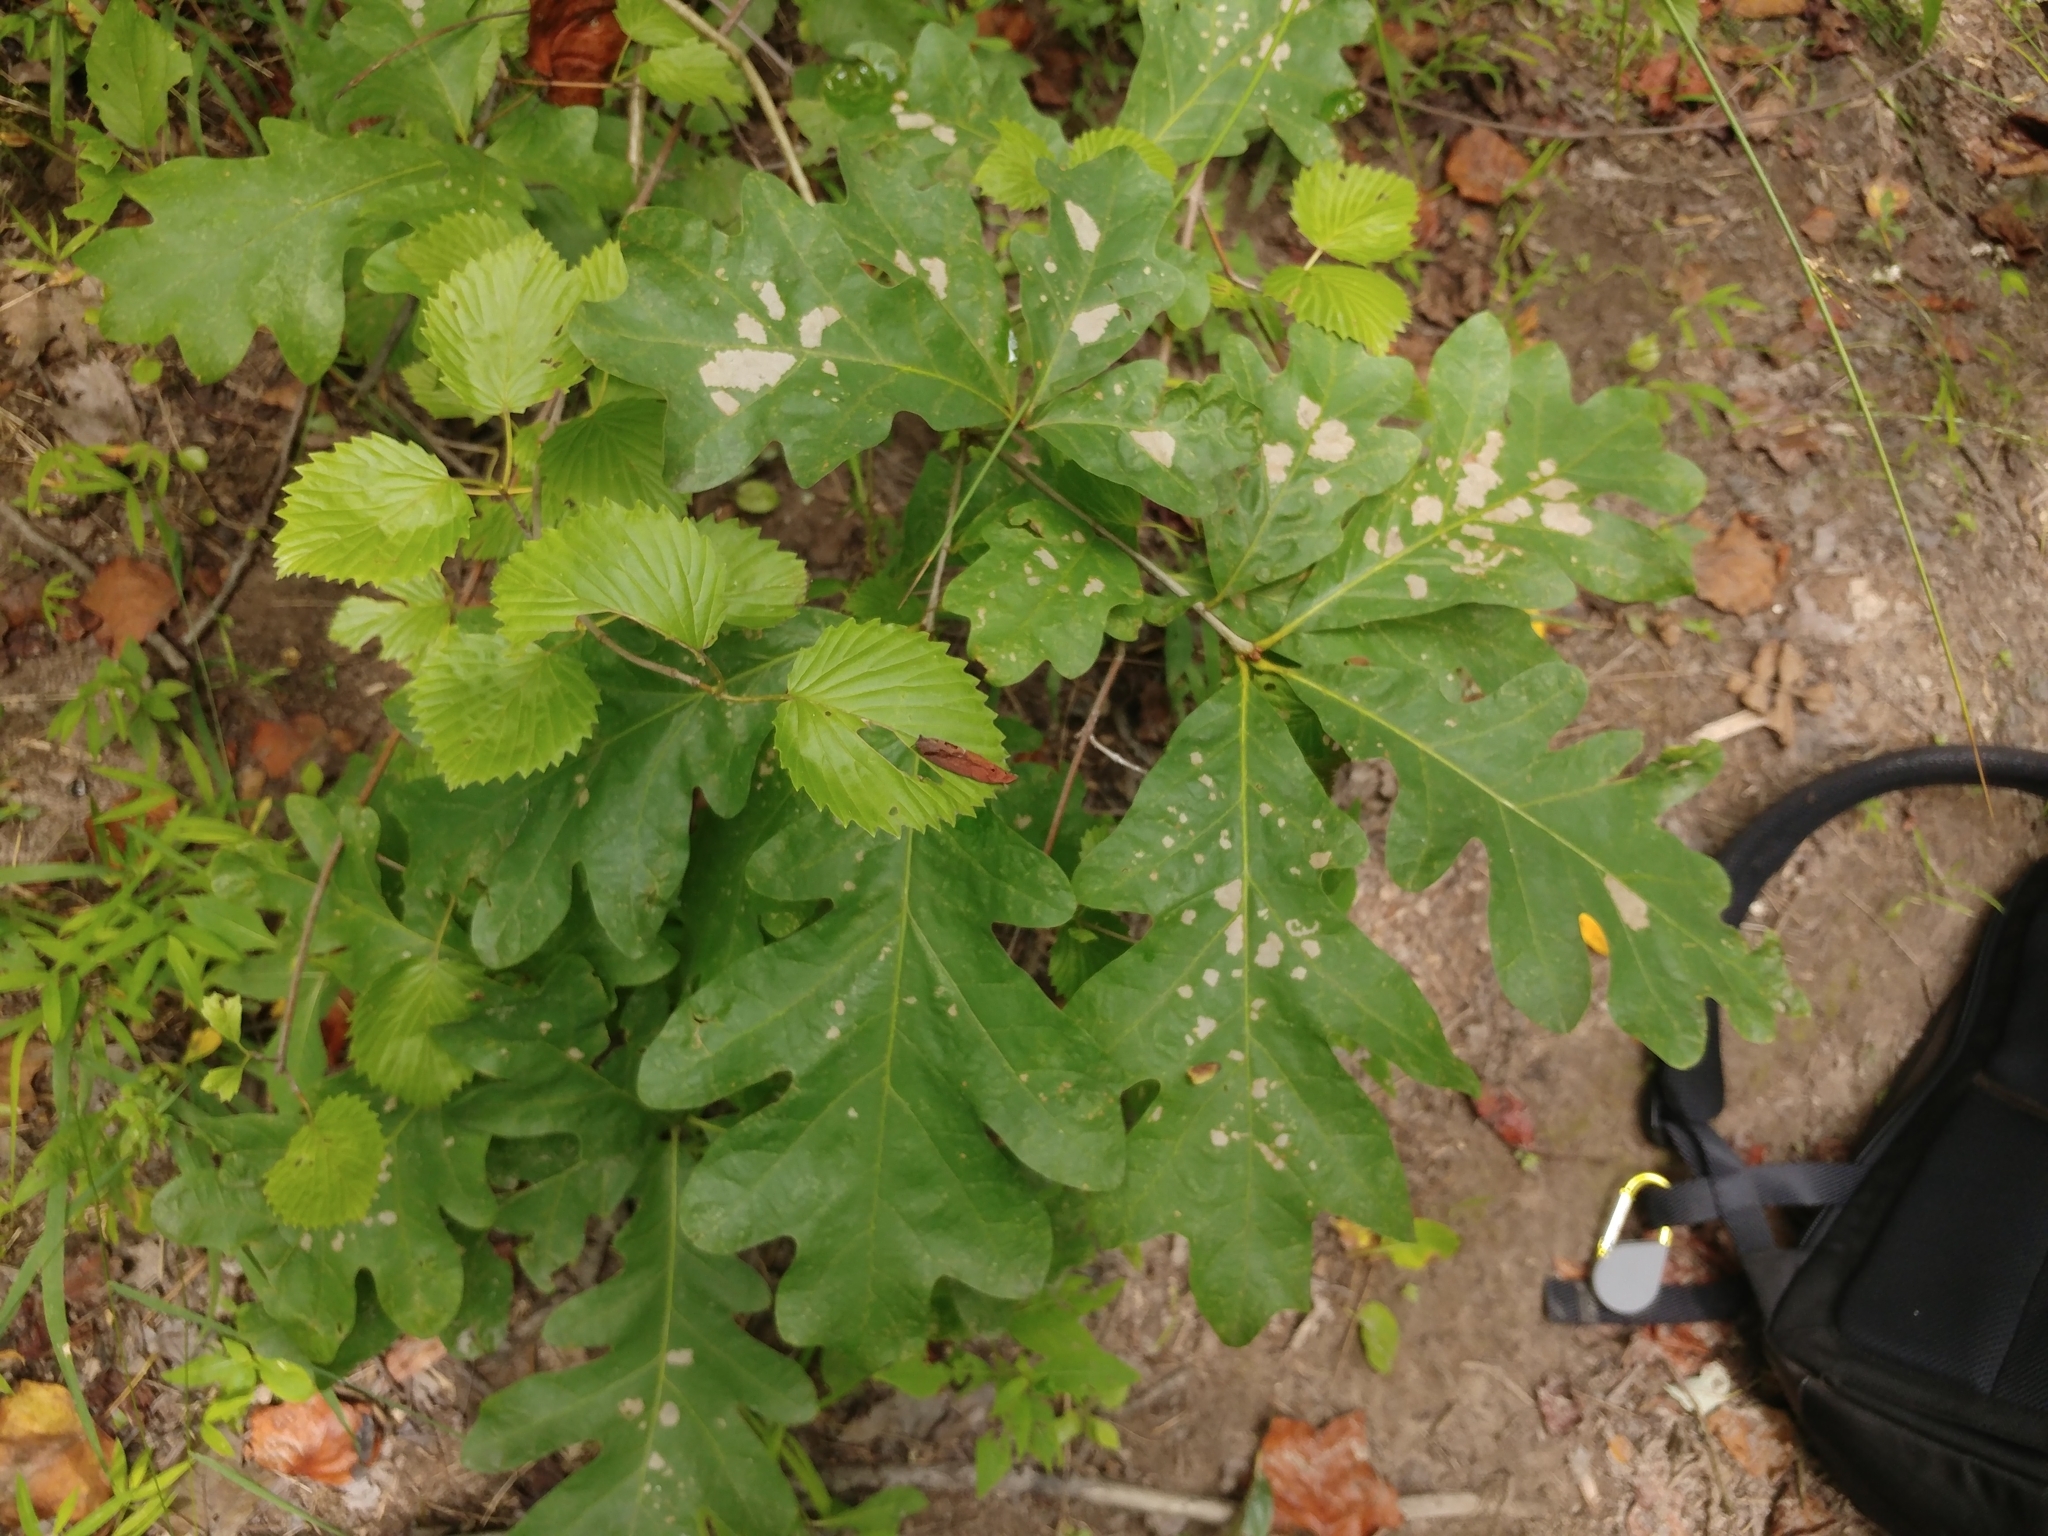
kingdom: Plantae
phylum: Tracheophyta
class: Magnoliopsida
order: Fagales
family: Fagaceae
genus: Quercus
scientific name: Quercus alba
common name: White oak
